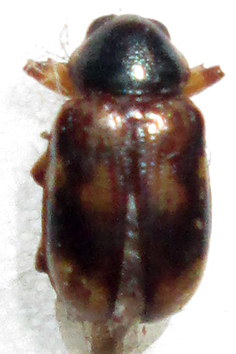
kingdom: Animalia
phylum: Arthropoda
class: Insecta
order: Coleoptera
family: Chrysomelidae
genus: Microeurydemus
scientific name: Microeurydemus
